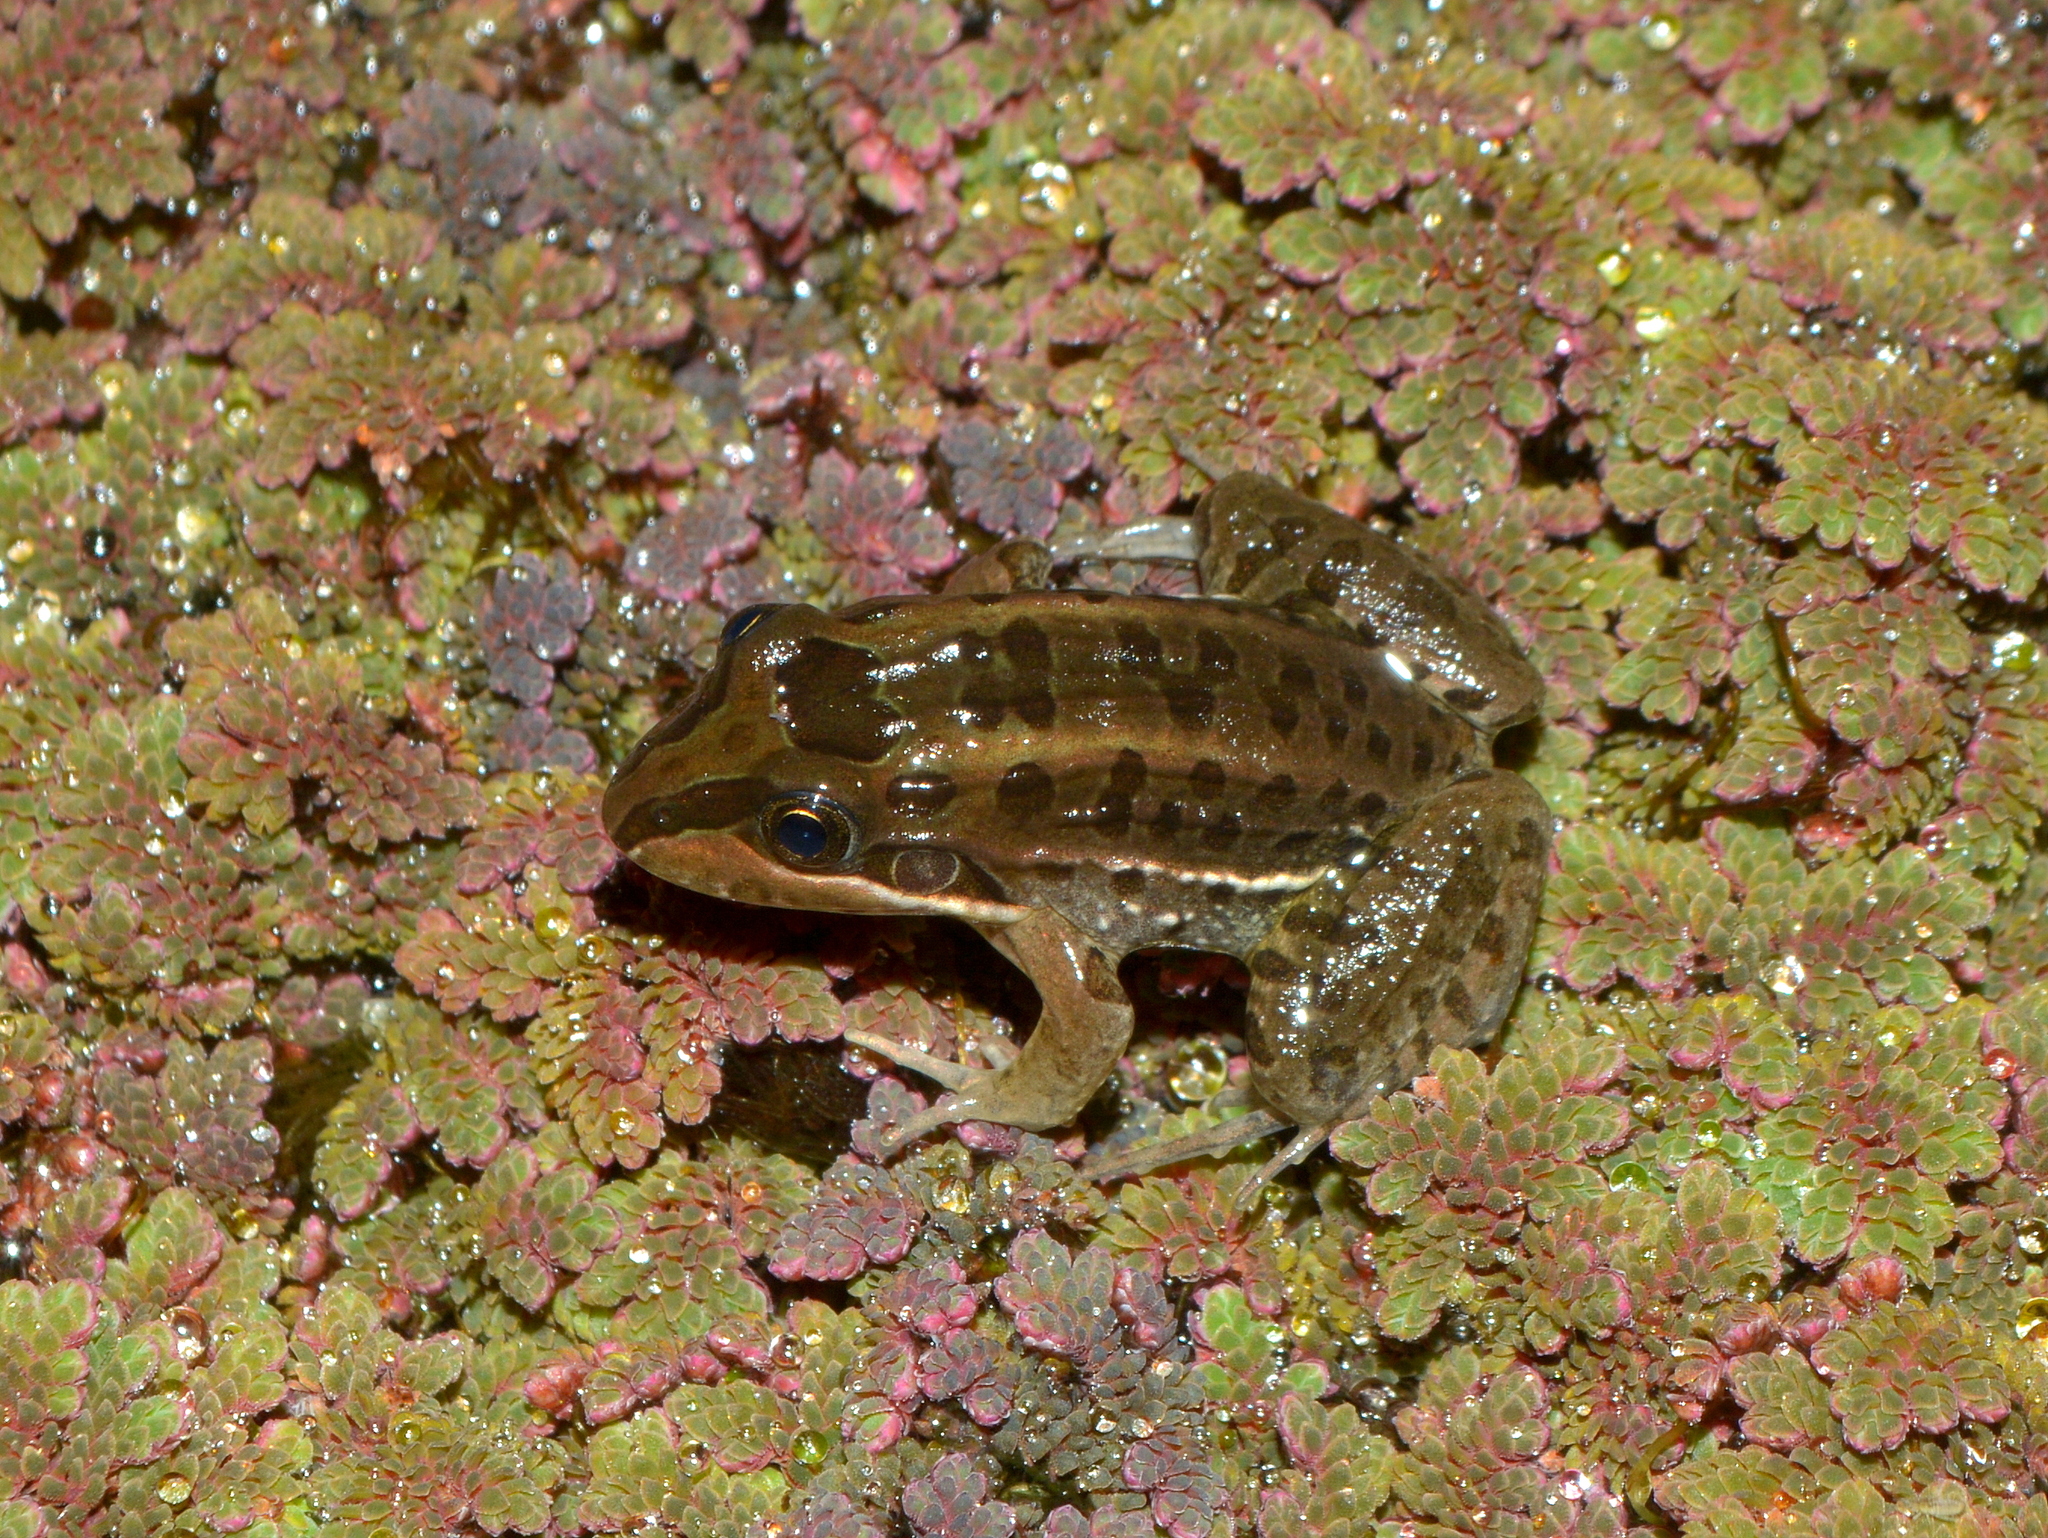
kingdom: Animalia
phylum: Chordata
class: Amphibia
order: Anura
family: Leptodactylidae
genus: Leptodactylus
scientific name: Leptodactylus luctator
